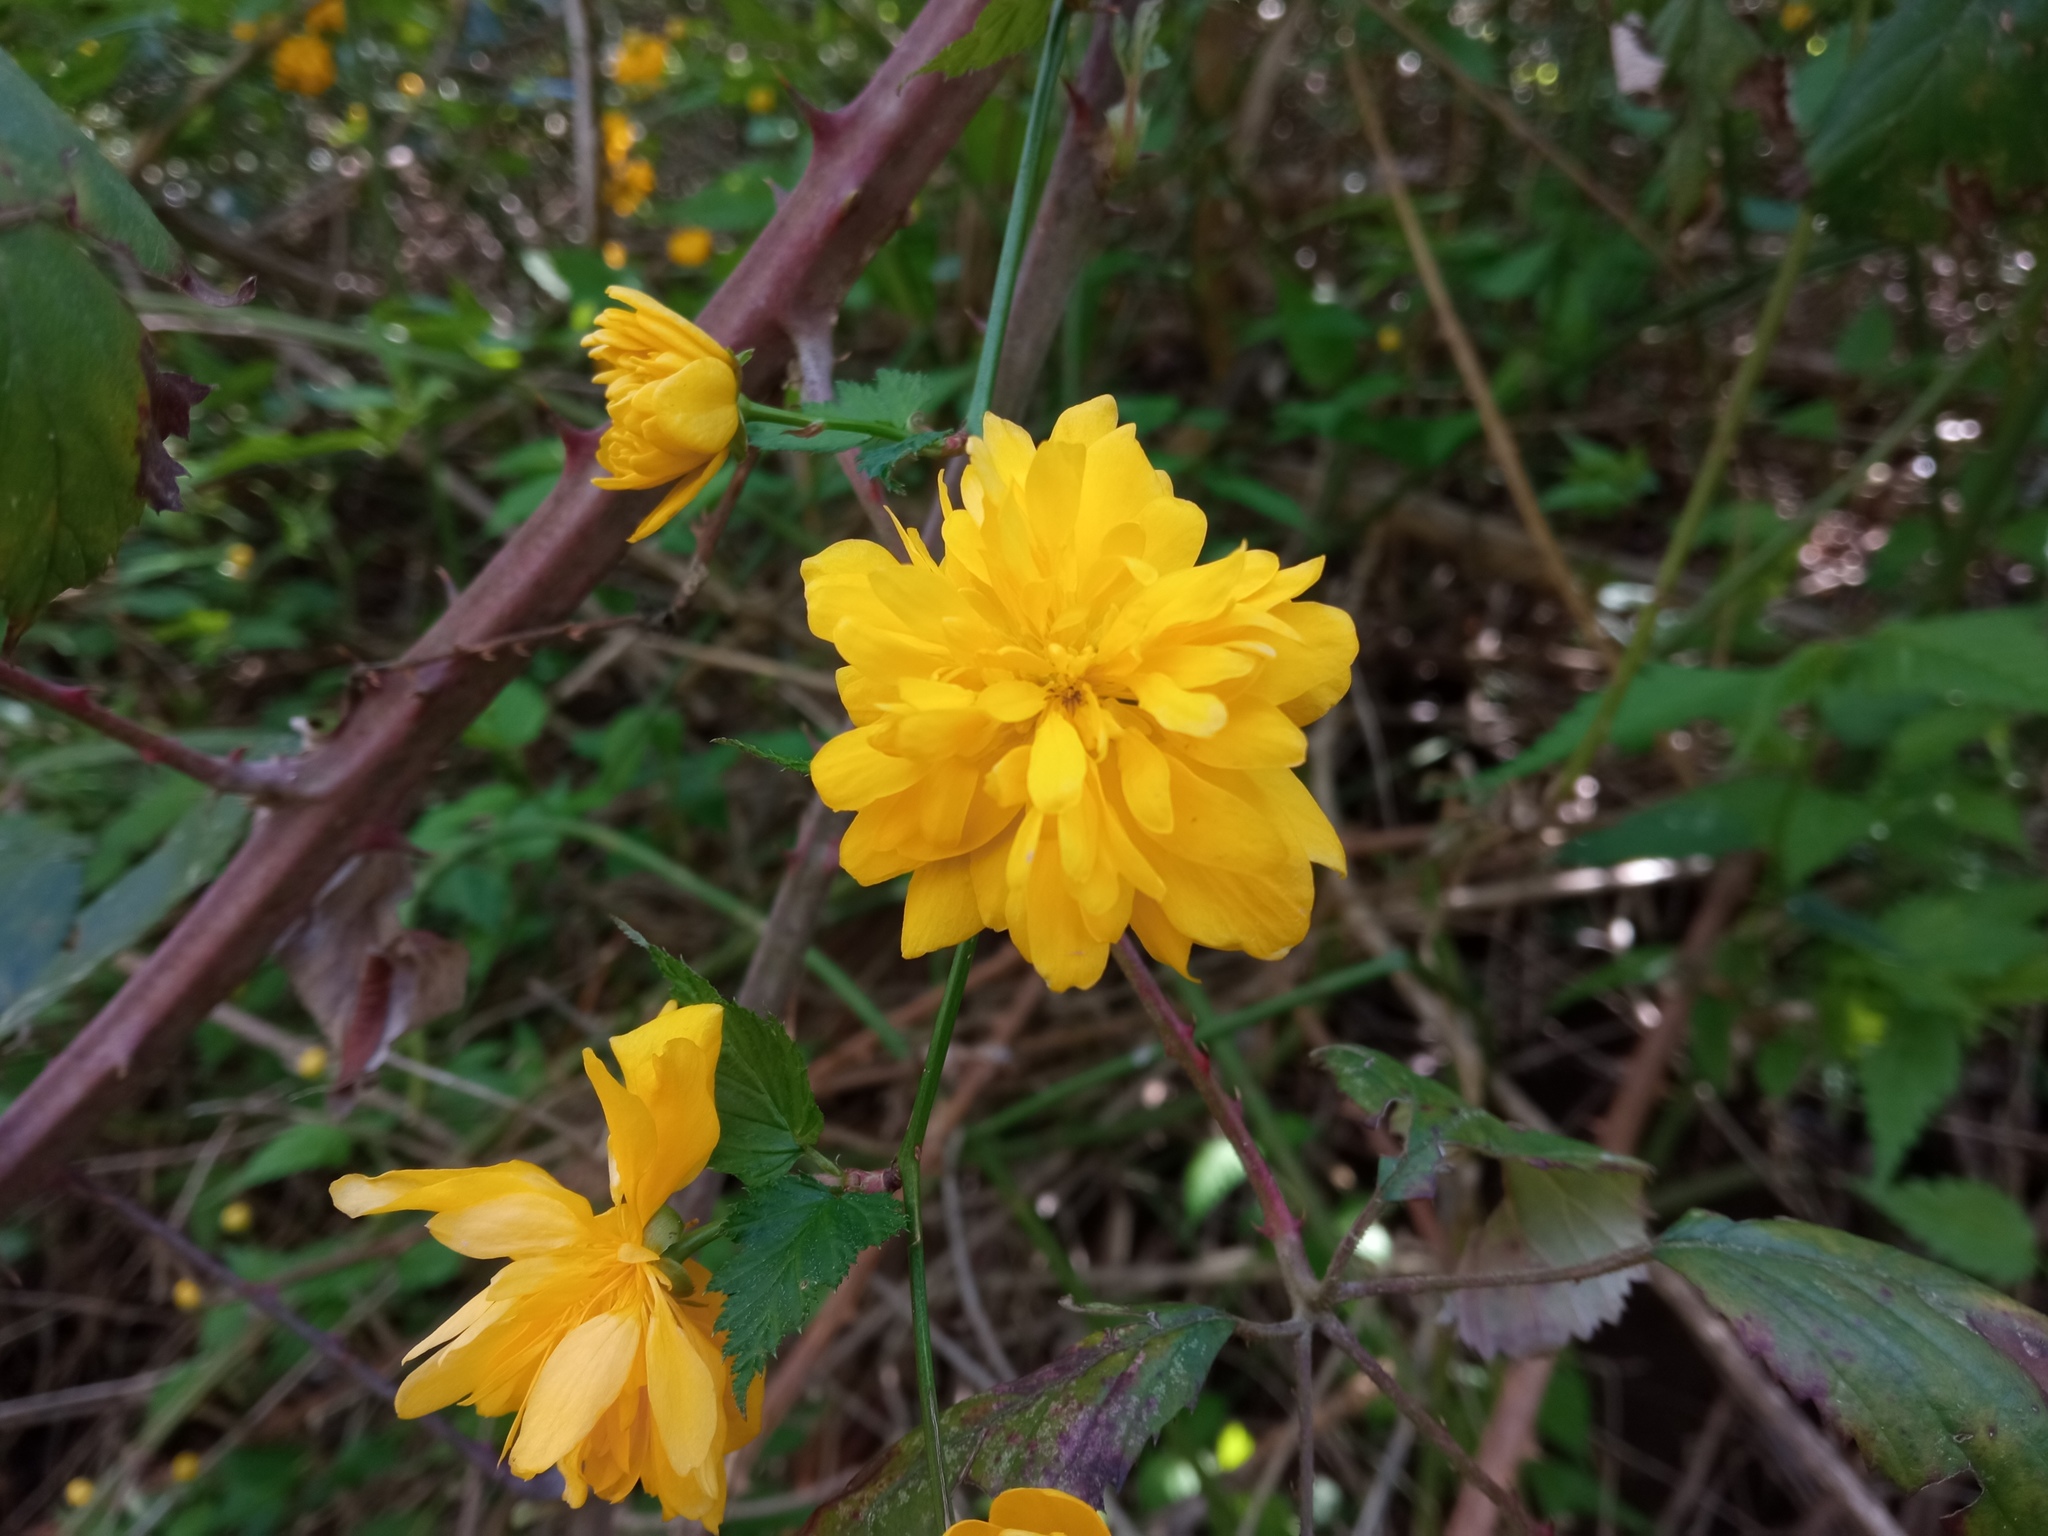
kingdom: Plantae
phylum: Tracheophyta
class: Magnoliopsida
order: Rosales
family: Rosaceae
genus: Kerria
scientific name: Kerria japonica
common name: Japanese kerria
